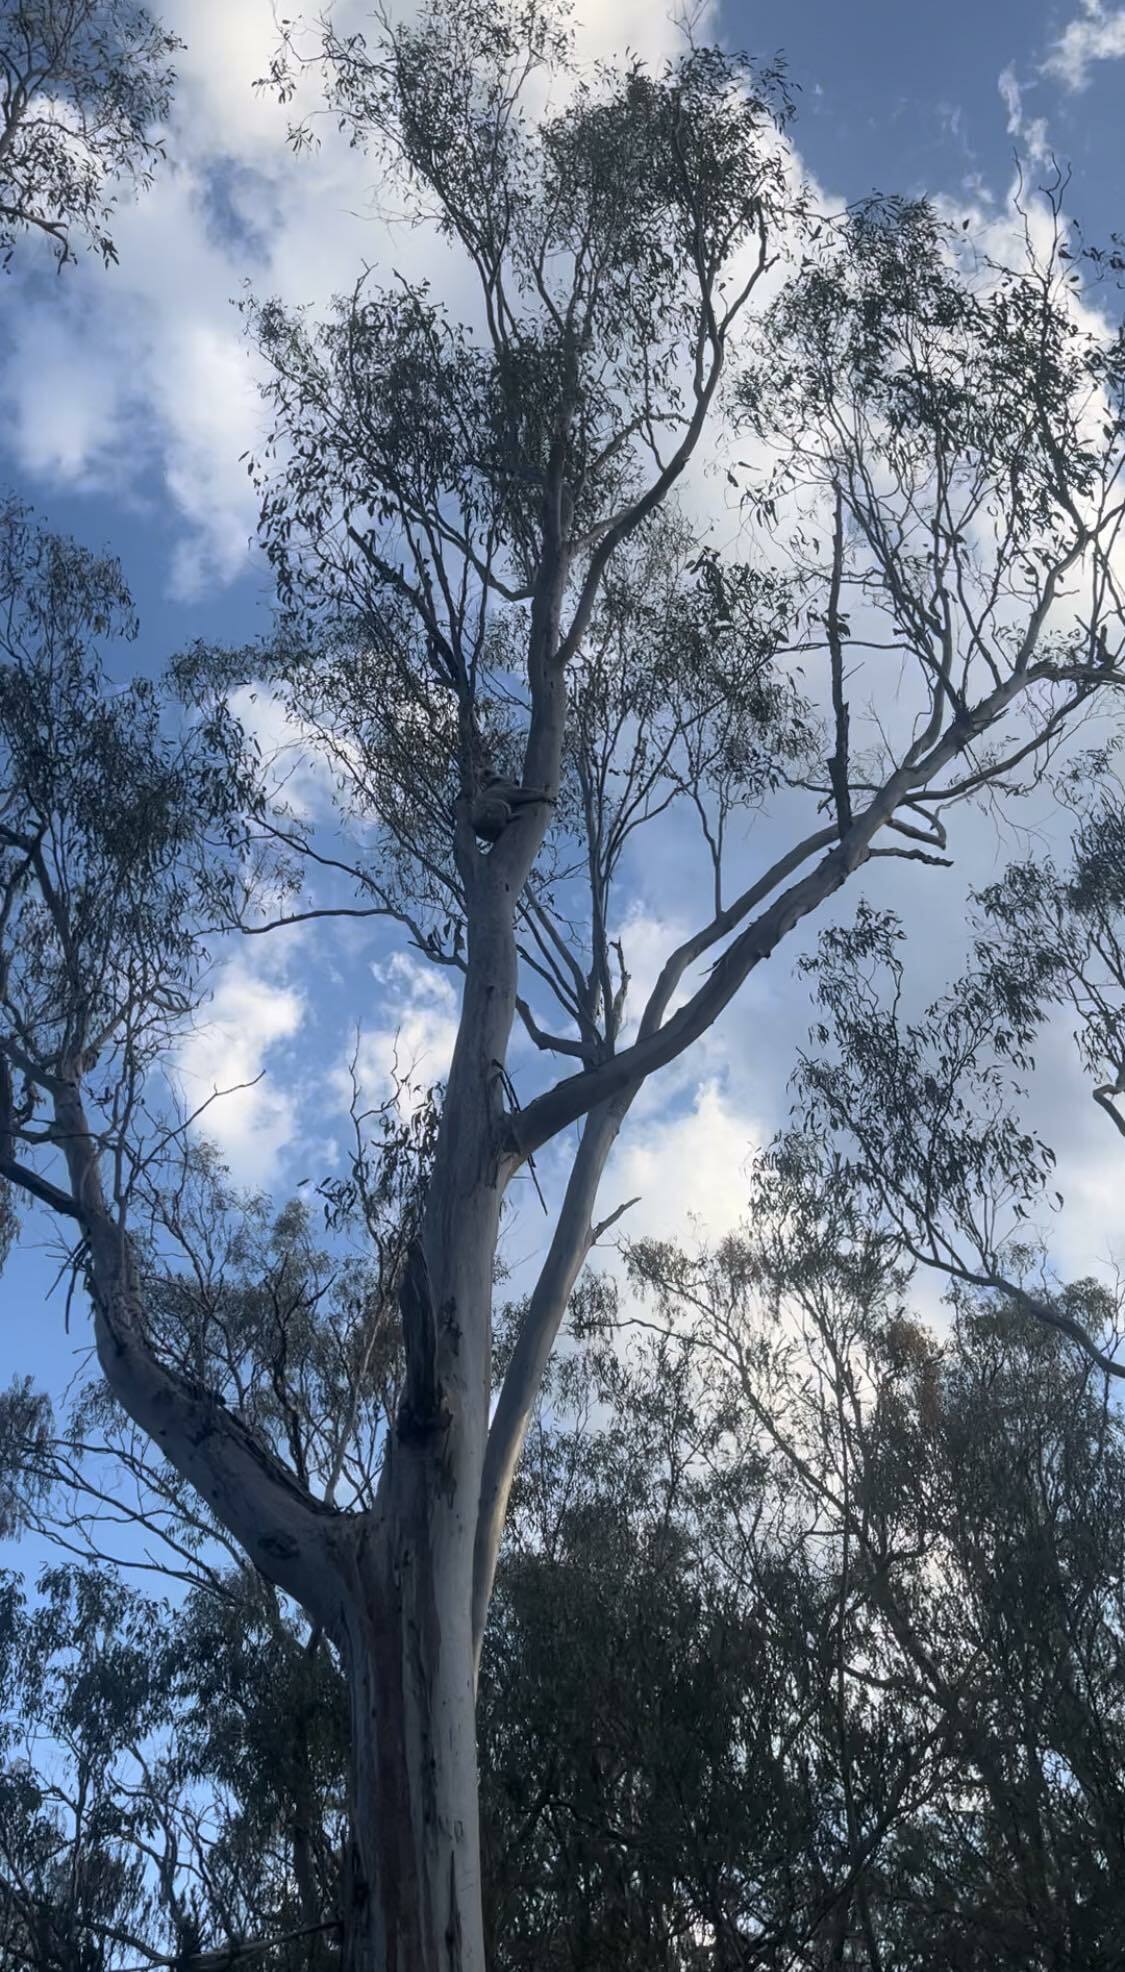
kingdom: Animalia
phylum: Chordata
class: Mammalia
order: Diprotodontia
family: Phascolarctidae
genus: Phascolarctos
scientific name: Phascolarctos cinereus
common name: Koala
